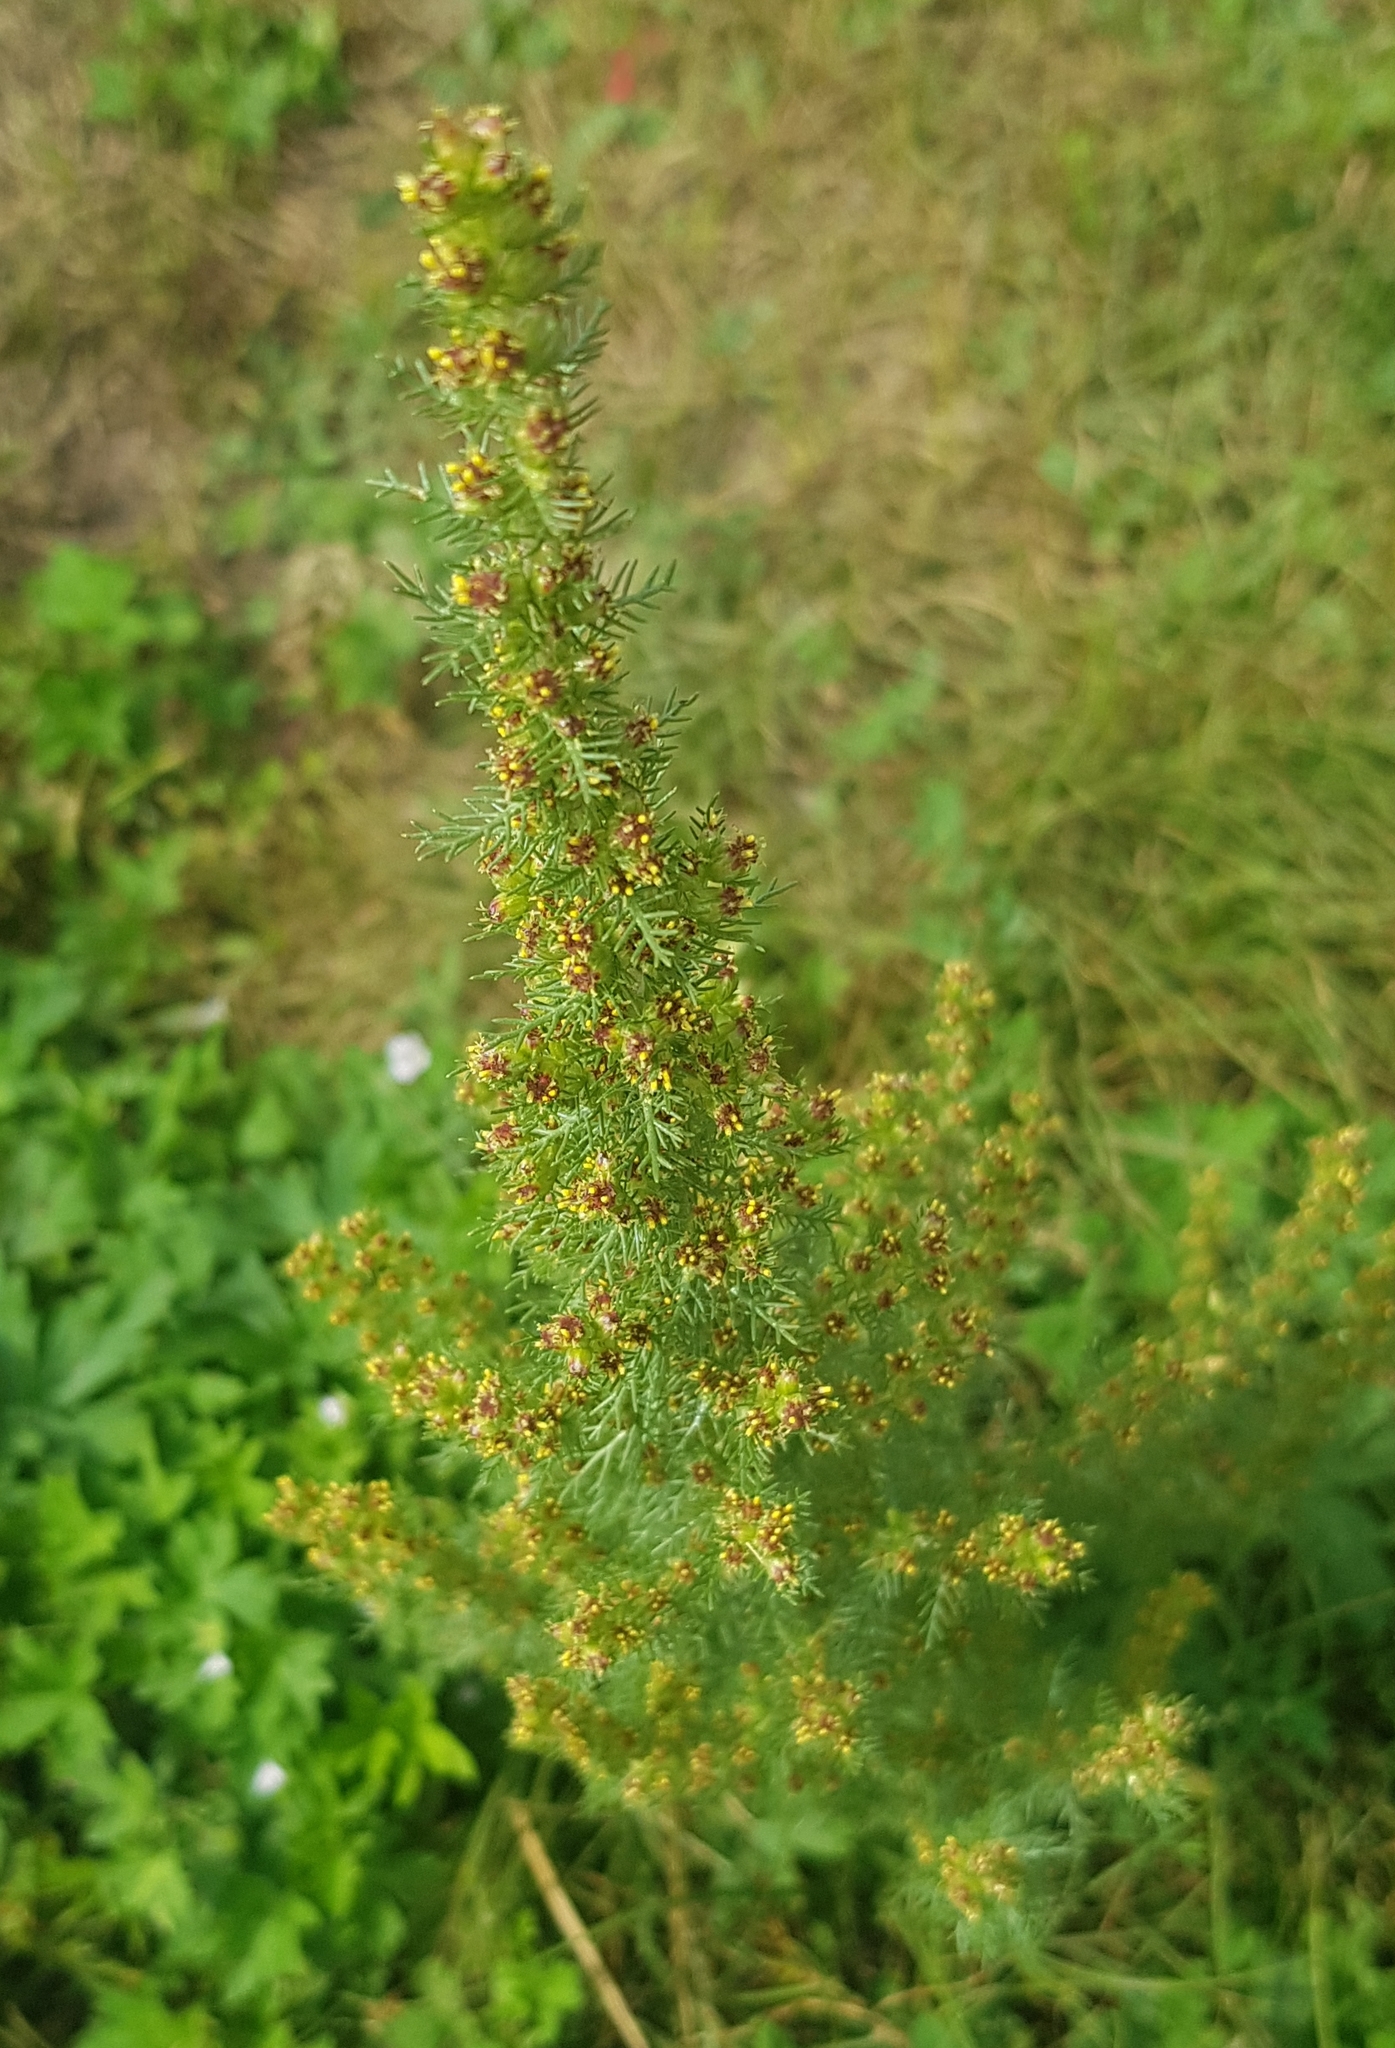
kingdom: Plantae
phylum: Tracheophyta
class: Magnoliopsida
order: Asterales
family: Asteraceae
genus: Neopallasia
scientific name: Neopallasia pectinata
